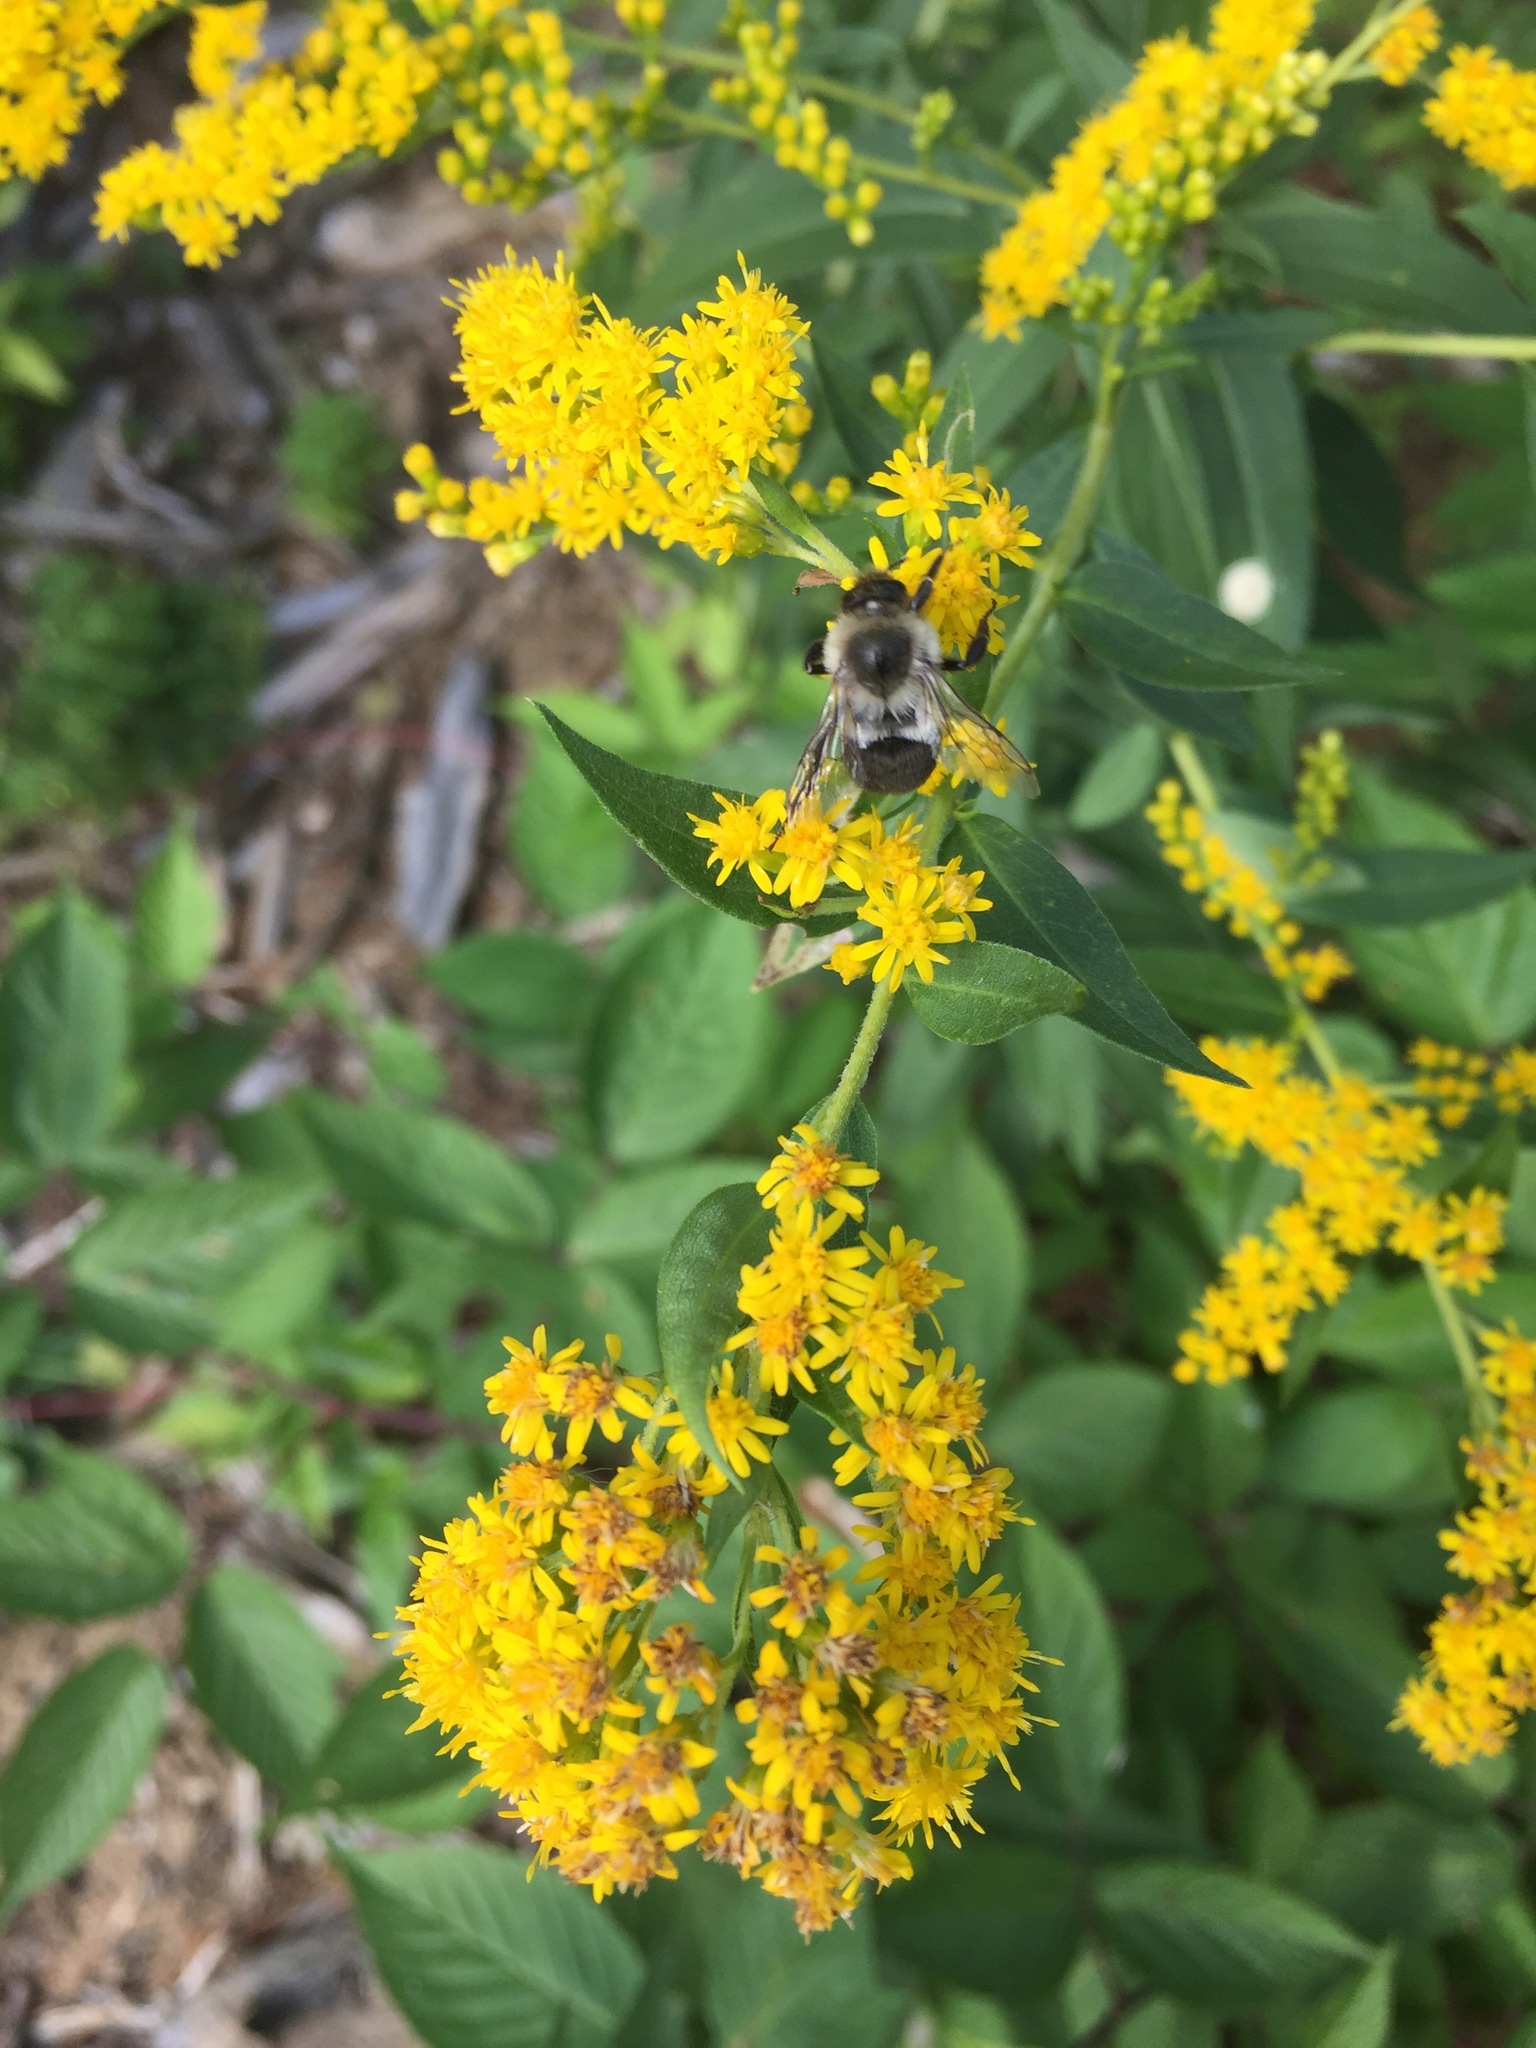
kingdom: Animalia
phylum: Arthropoda
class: Insecta
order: Hymenoptera
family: Apidae
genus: Bombus
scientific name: Bombus impatiens
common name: Common eastern bumble bee
